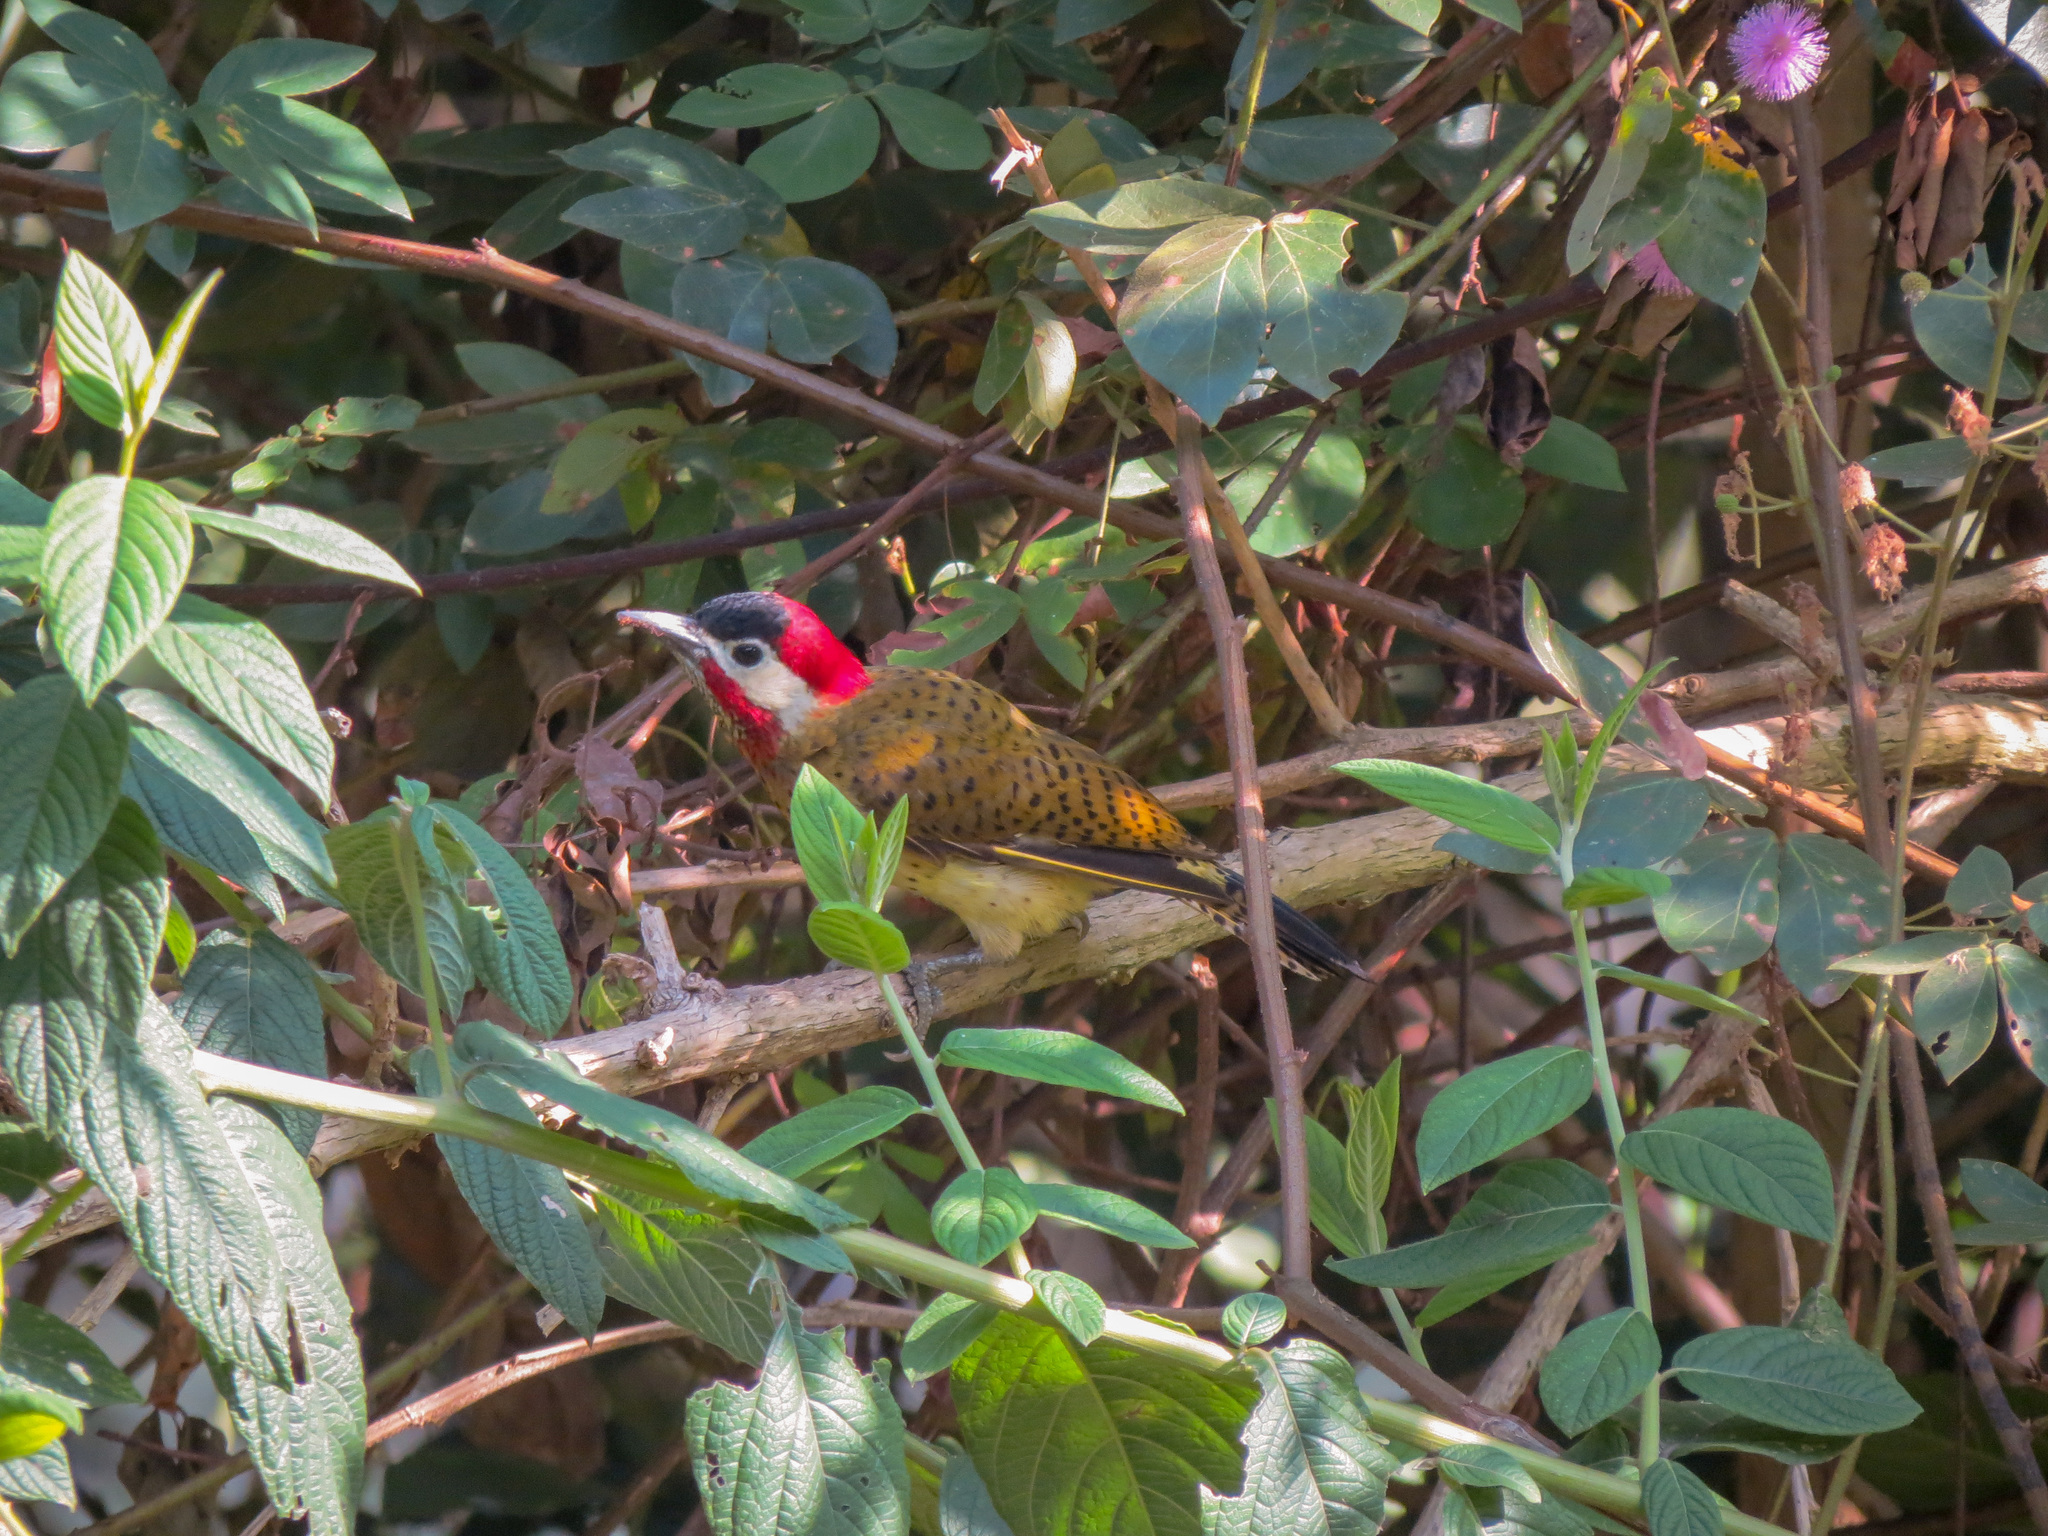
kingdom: Animalia
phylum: Chordata
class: Aves
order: Piciformes
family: Picidae
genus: Colaptes
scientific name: Colaptes punctigula
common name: Spot-breasted woodpecker
